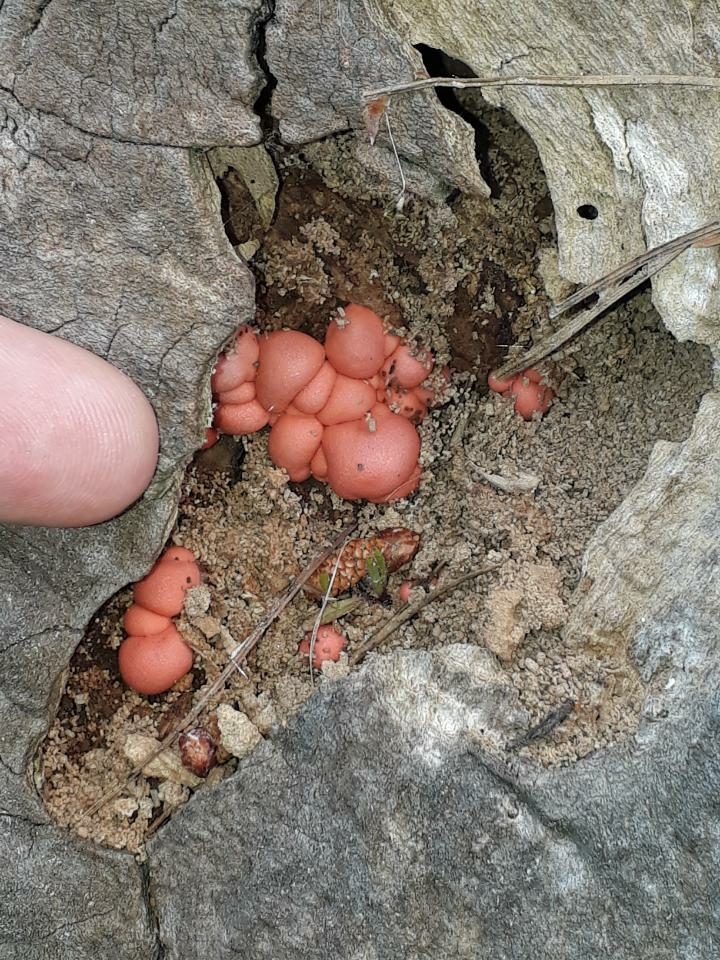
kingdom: Protozoa
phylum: Mycetozoa
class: Myxomycetes
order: Cribrariales
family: Tubiferaceae
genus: Lycogala
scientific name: Lycogala epidendrum
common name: Wolf's milk
